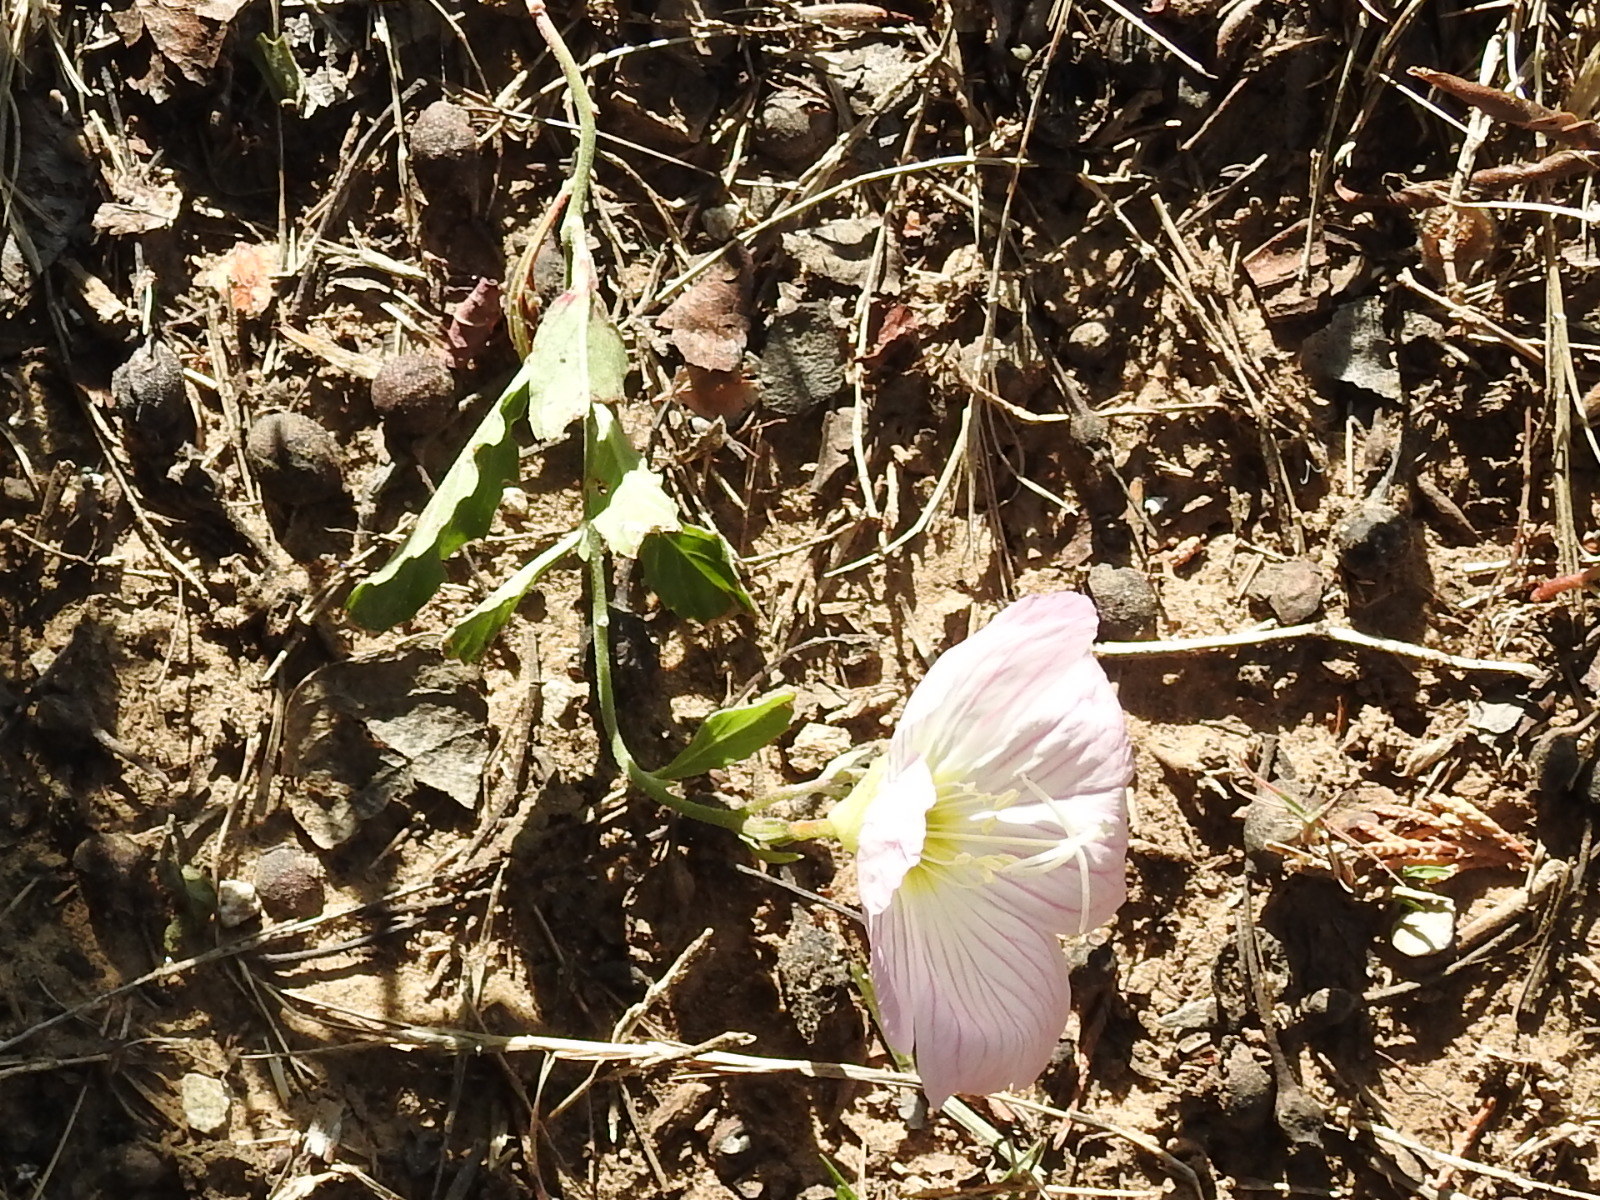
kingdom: Plantae
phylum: Tracheophyta
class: Magnoliopsida
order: Myrtales
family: Onagraceae
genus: Oenothera
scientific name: Oenothera speciosa
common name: White evening-primrose
